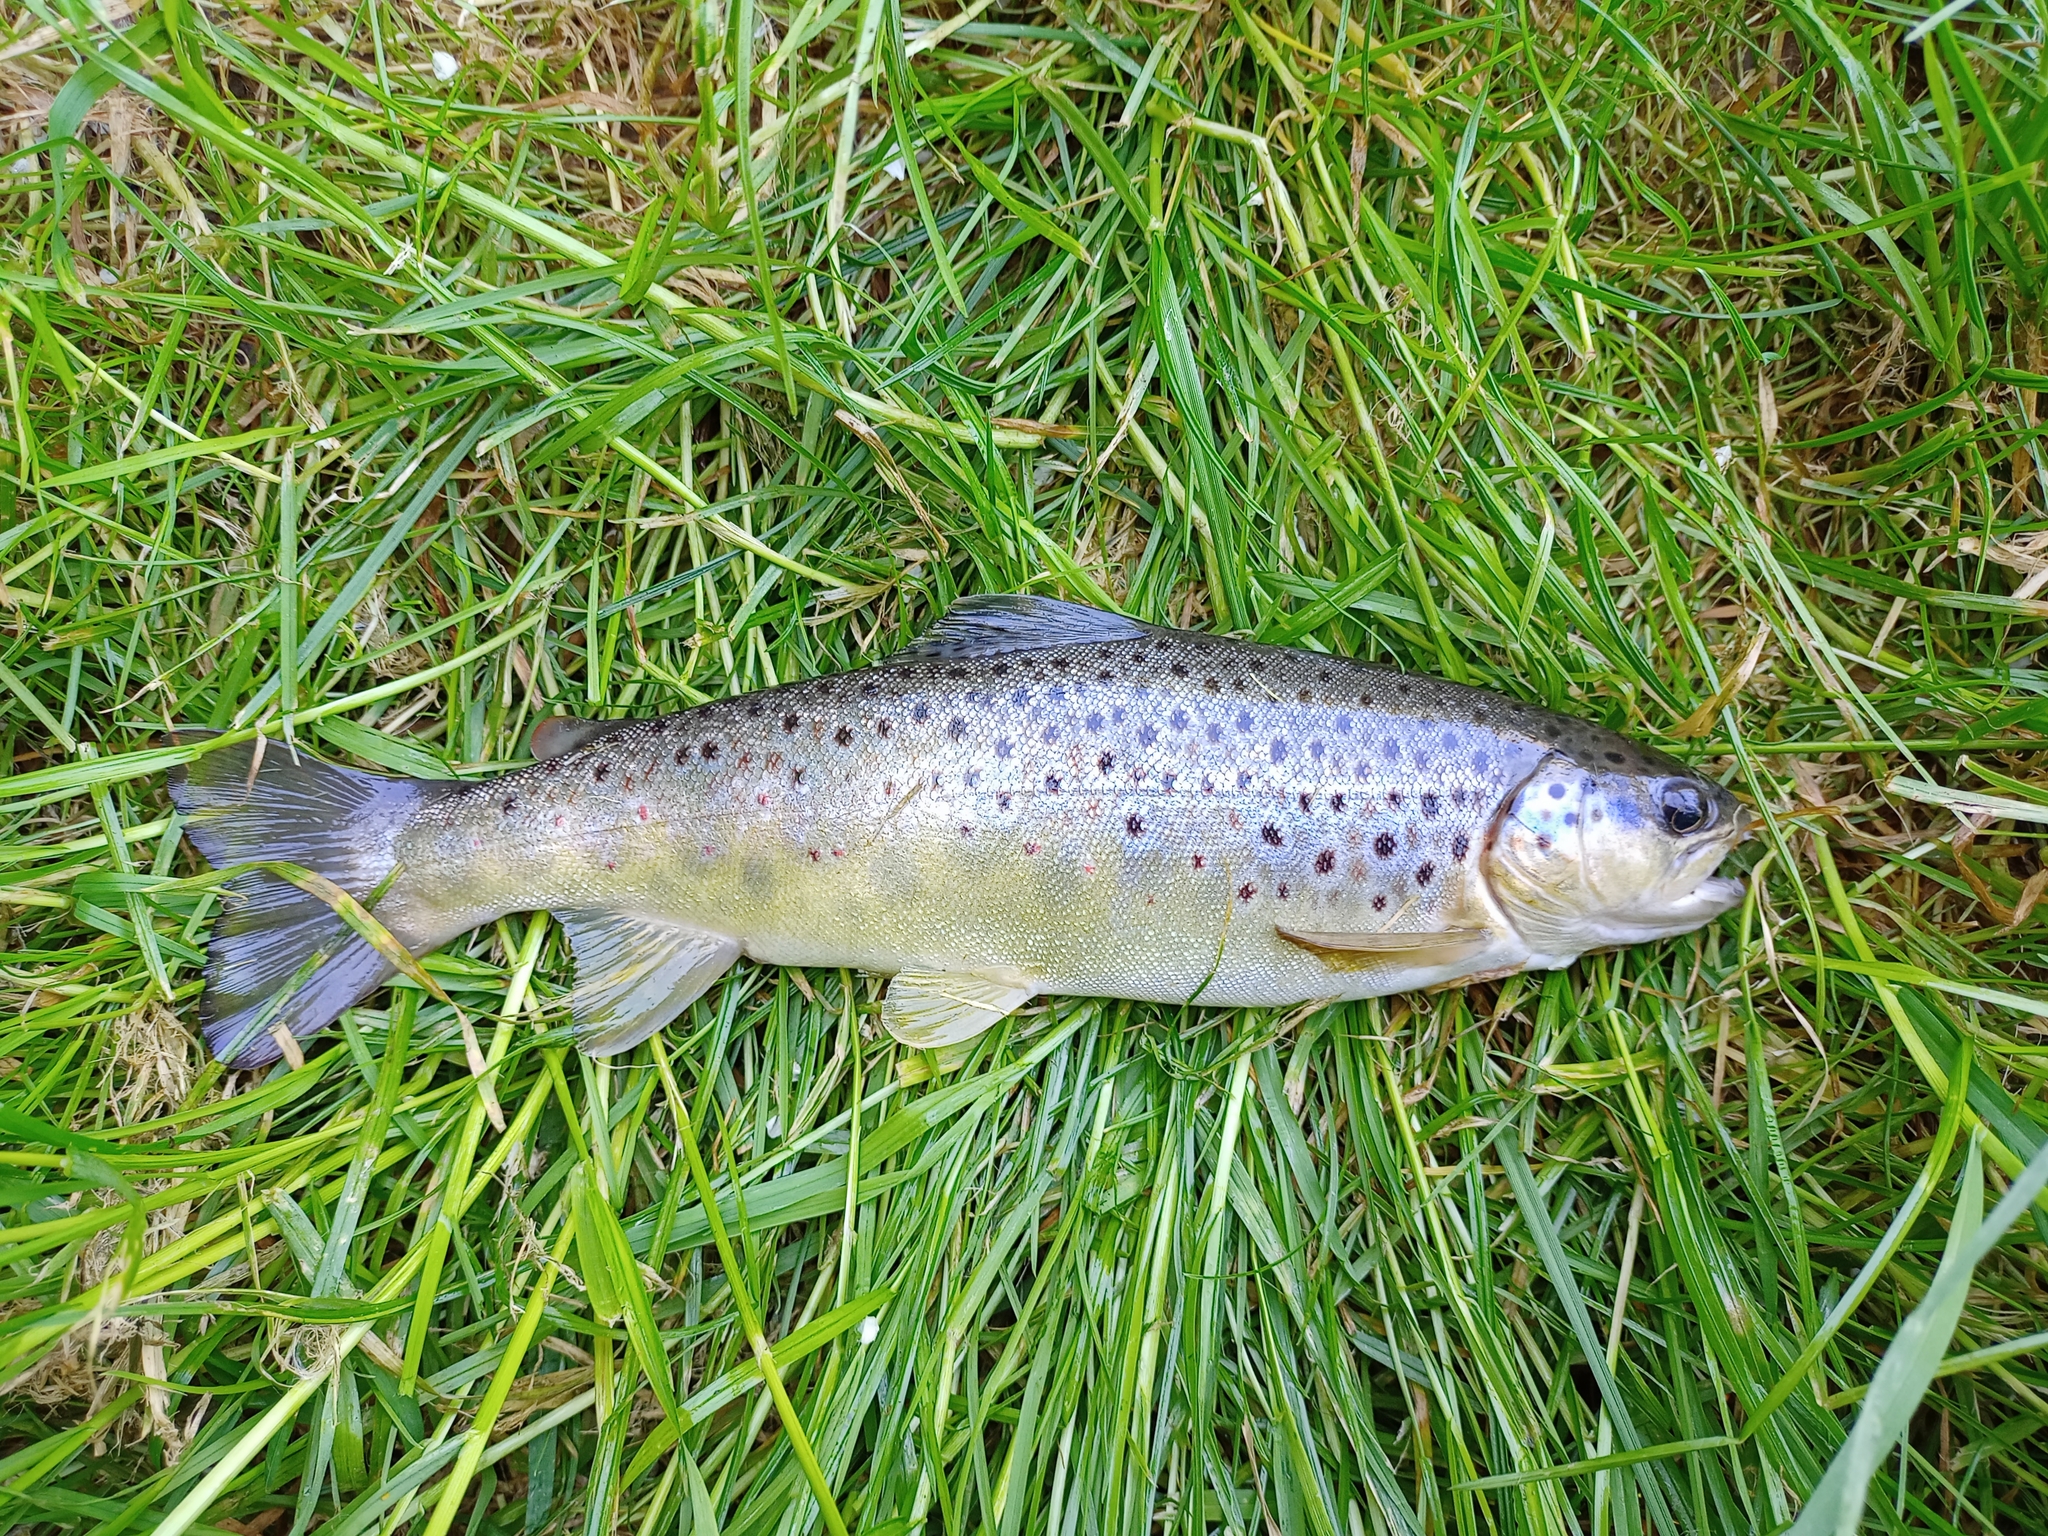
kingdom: Animalia
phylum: Chordata
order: Salmoniformes
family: Salmonidae
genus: Salmo
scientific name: Salmo trutta
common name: Brown trout
